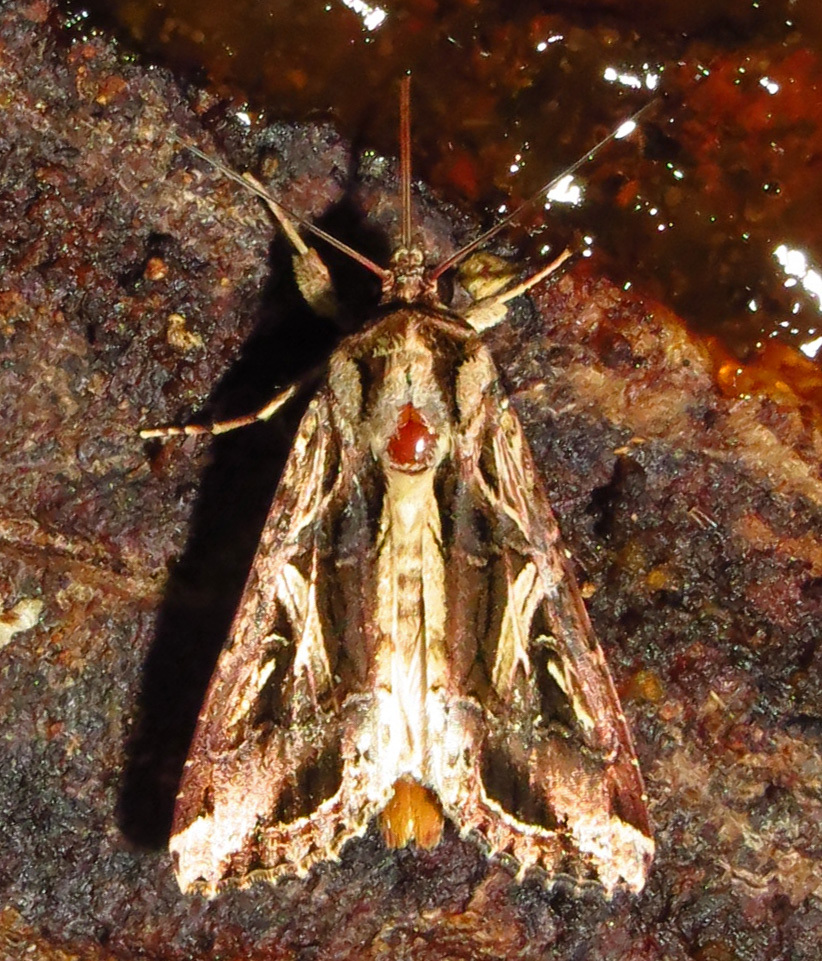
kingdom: Animalia
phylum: Arthropoda
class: Insecta
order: Lepidoptera
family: Noctuidae
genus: Spodoptera
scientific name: Spodoptera dolichos
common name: Sweetpotato armyworm
